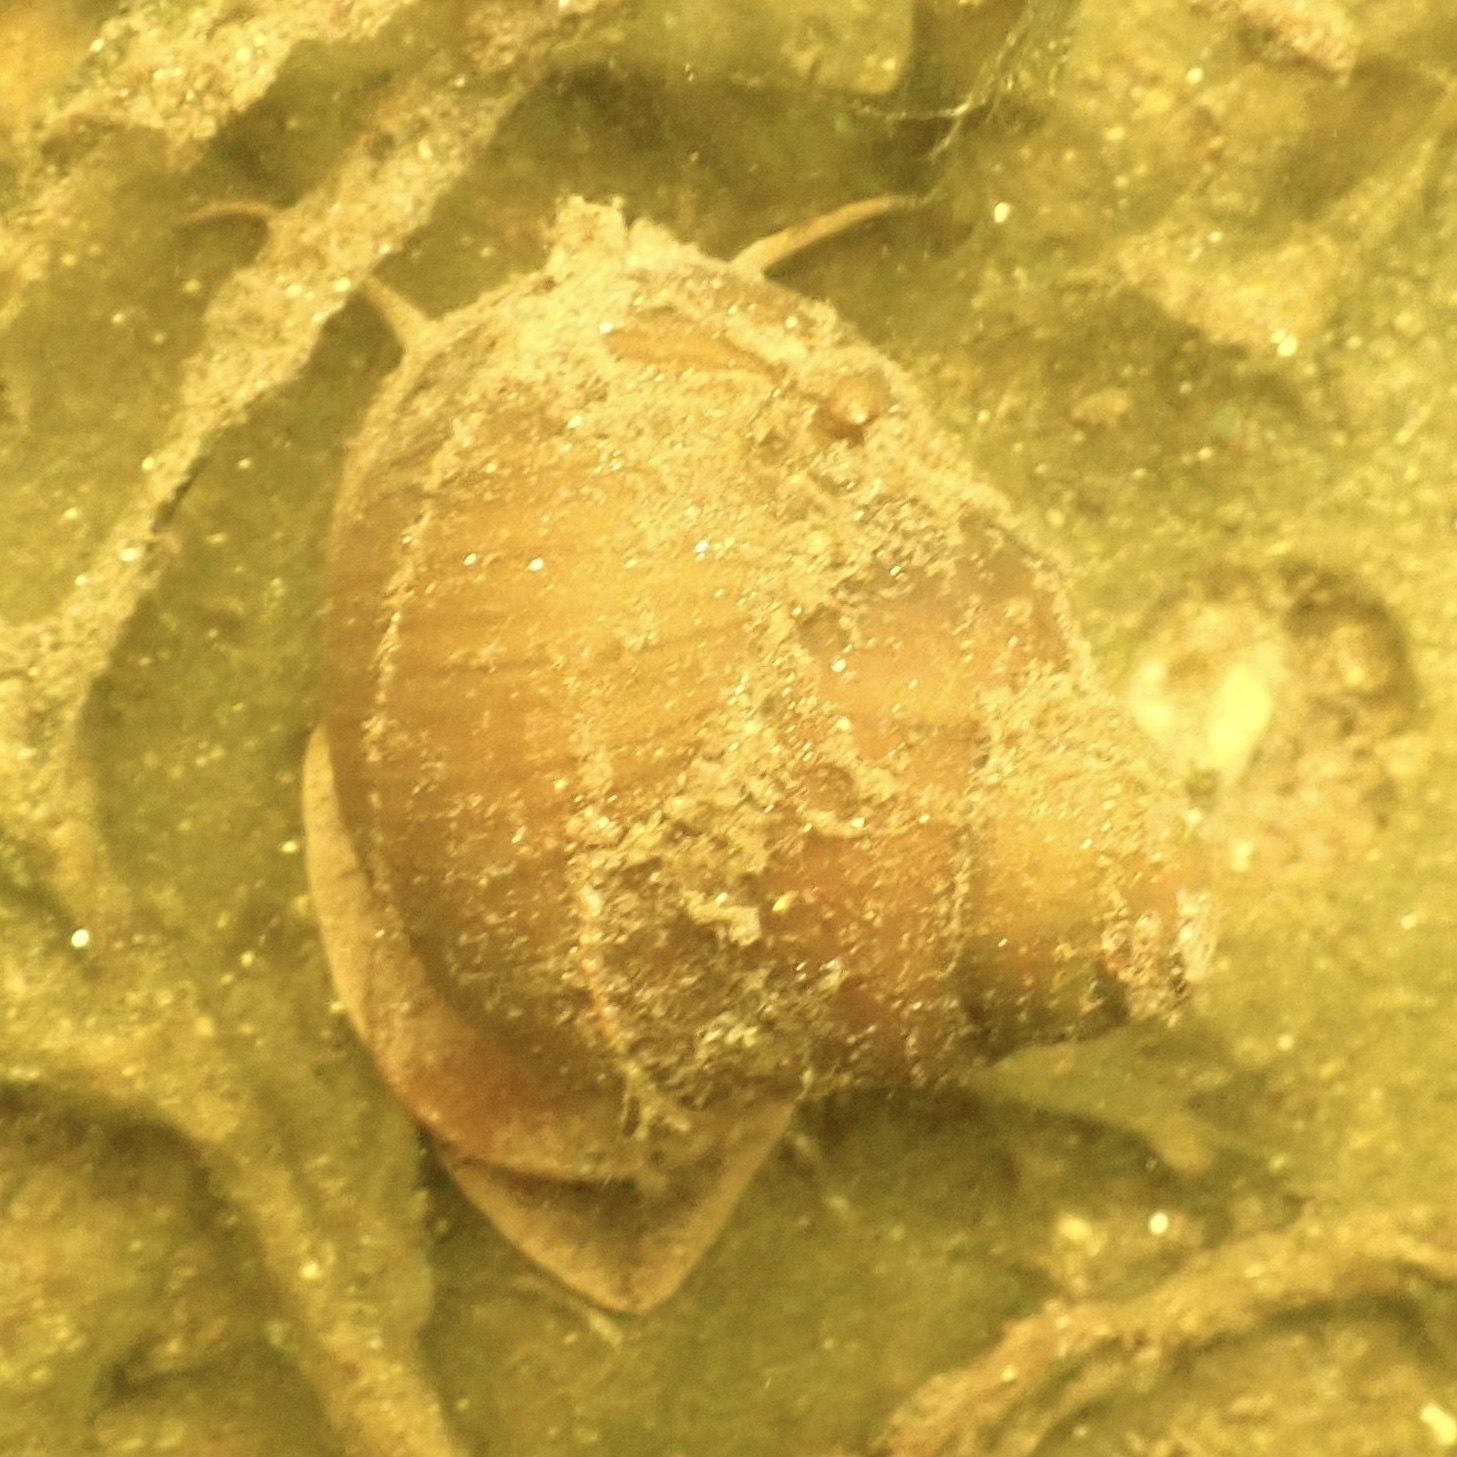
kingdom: Animalia
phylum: Mollusca
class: Gastropoda
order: Architaenioglossa
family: Viviparidae
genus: Cipangopaludina
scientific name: Cipangopaludina chinensis
